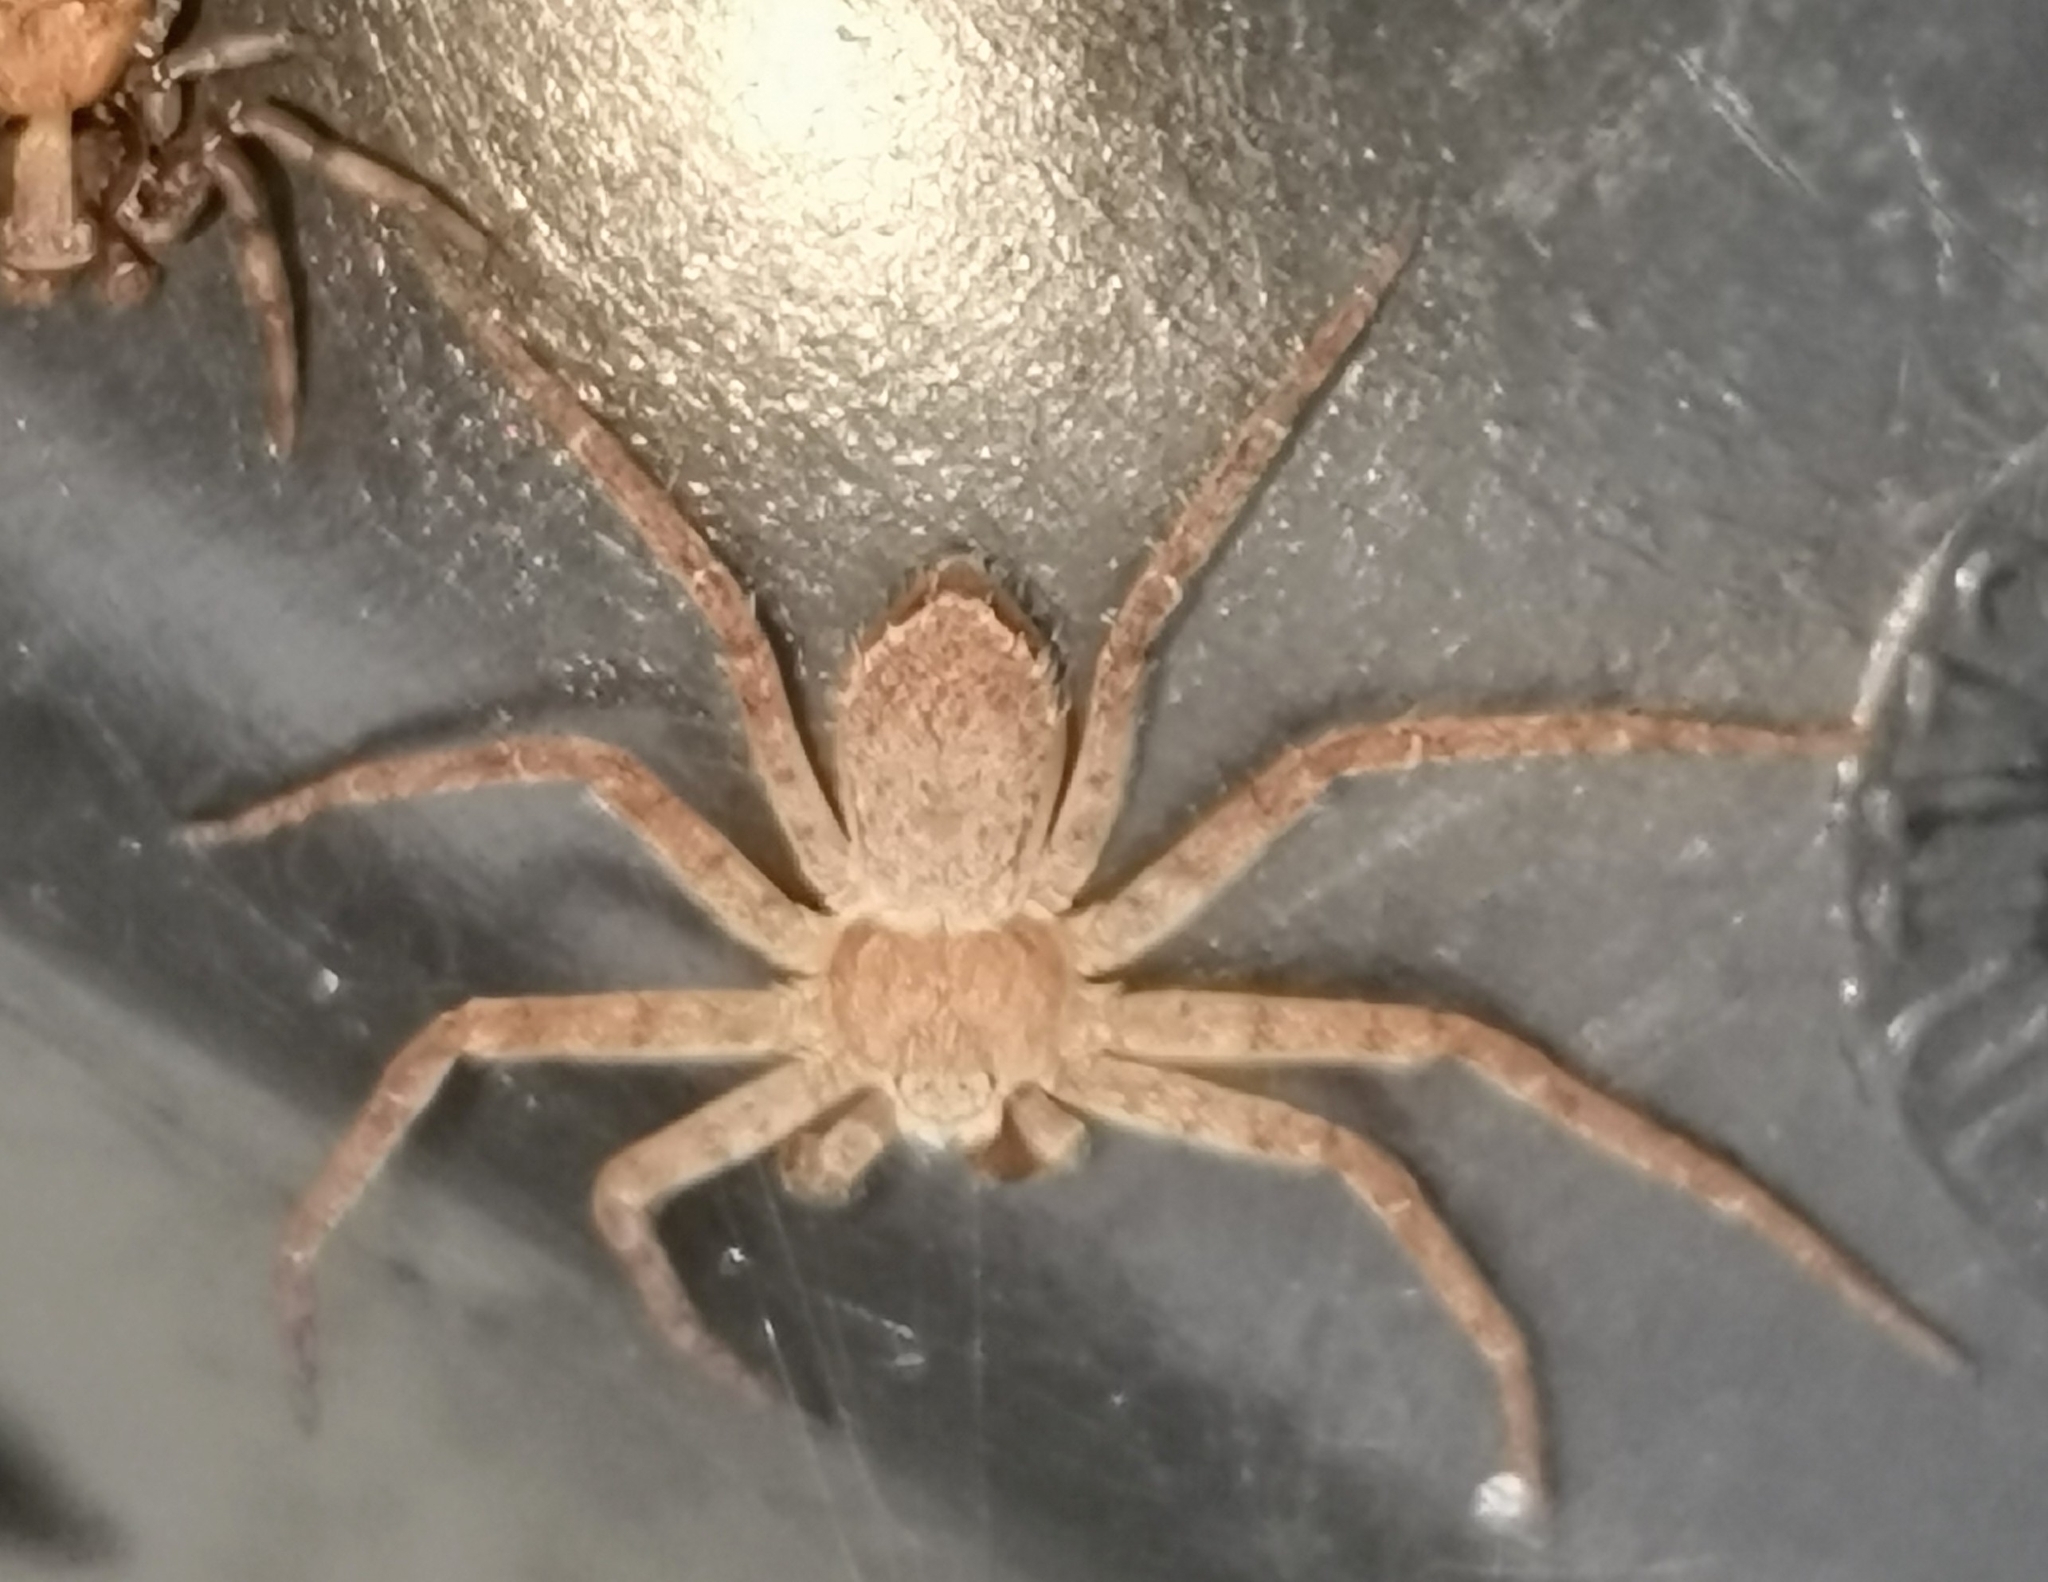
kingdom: Animalia
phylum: Arthropoda
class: Arachnida
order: Araneae
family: Philodromidae
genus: Philodromus
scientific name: Philodromus fuscomarginatus
